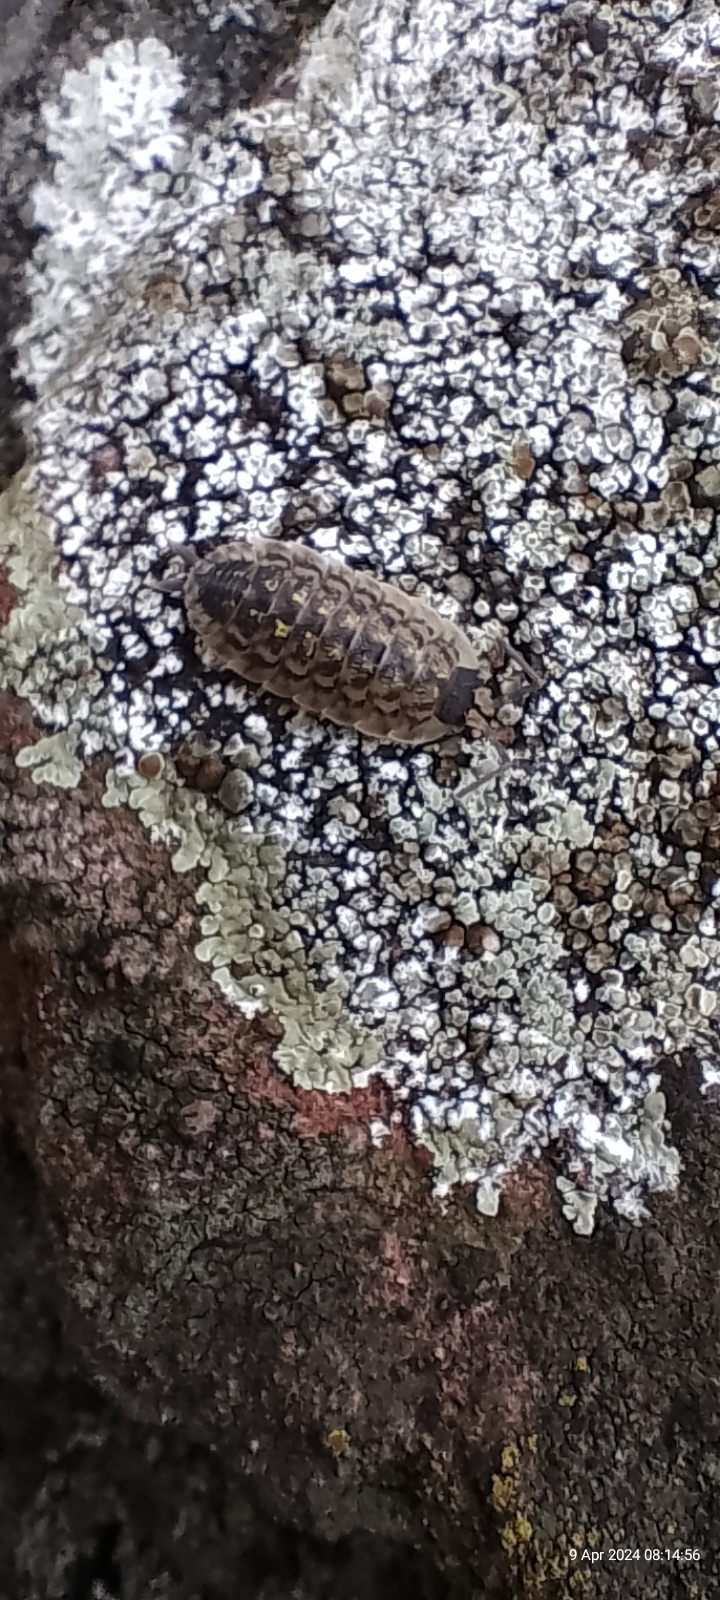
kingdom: Animalia
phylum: Arthropoda
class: Malacostraca
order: Isopoda
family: Porcellionidae
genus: Porcellio
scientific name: Porcellio spinicornis
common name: Painted woodlouse
